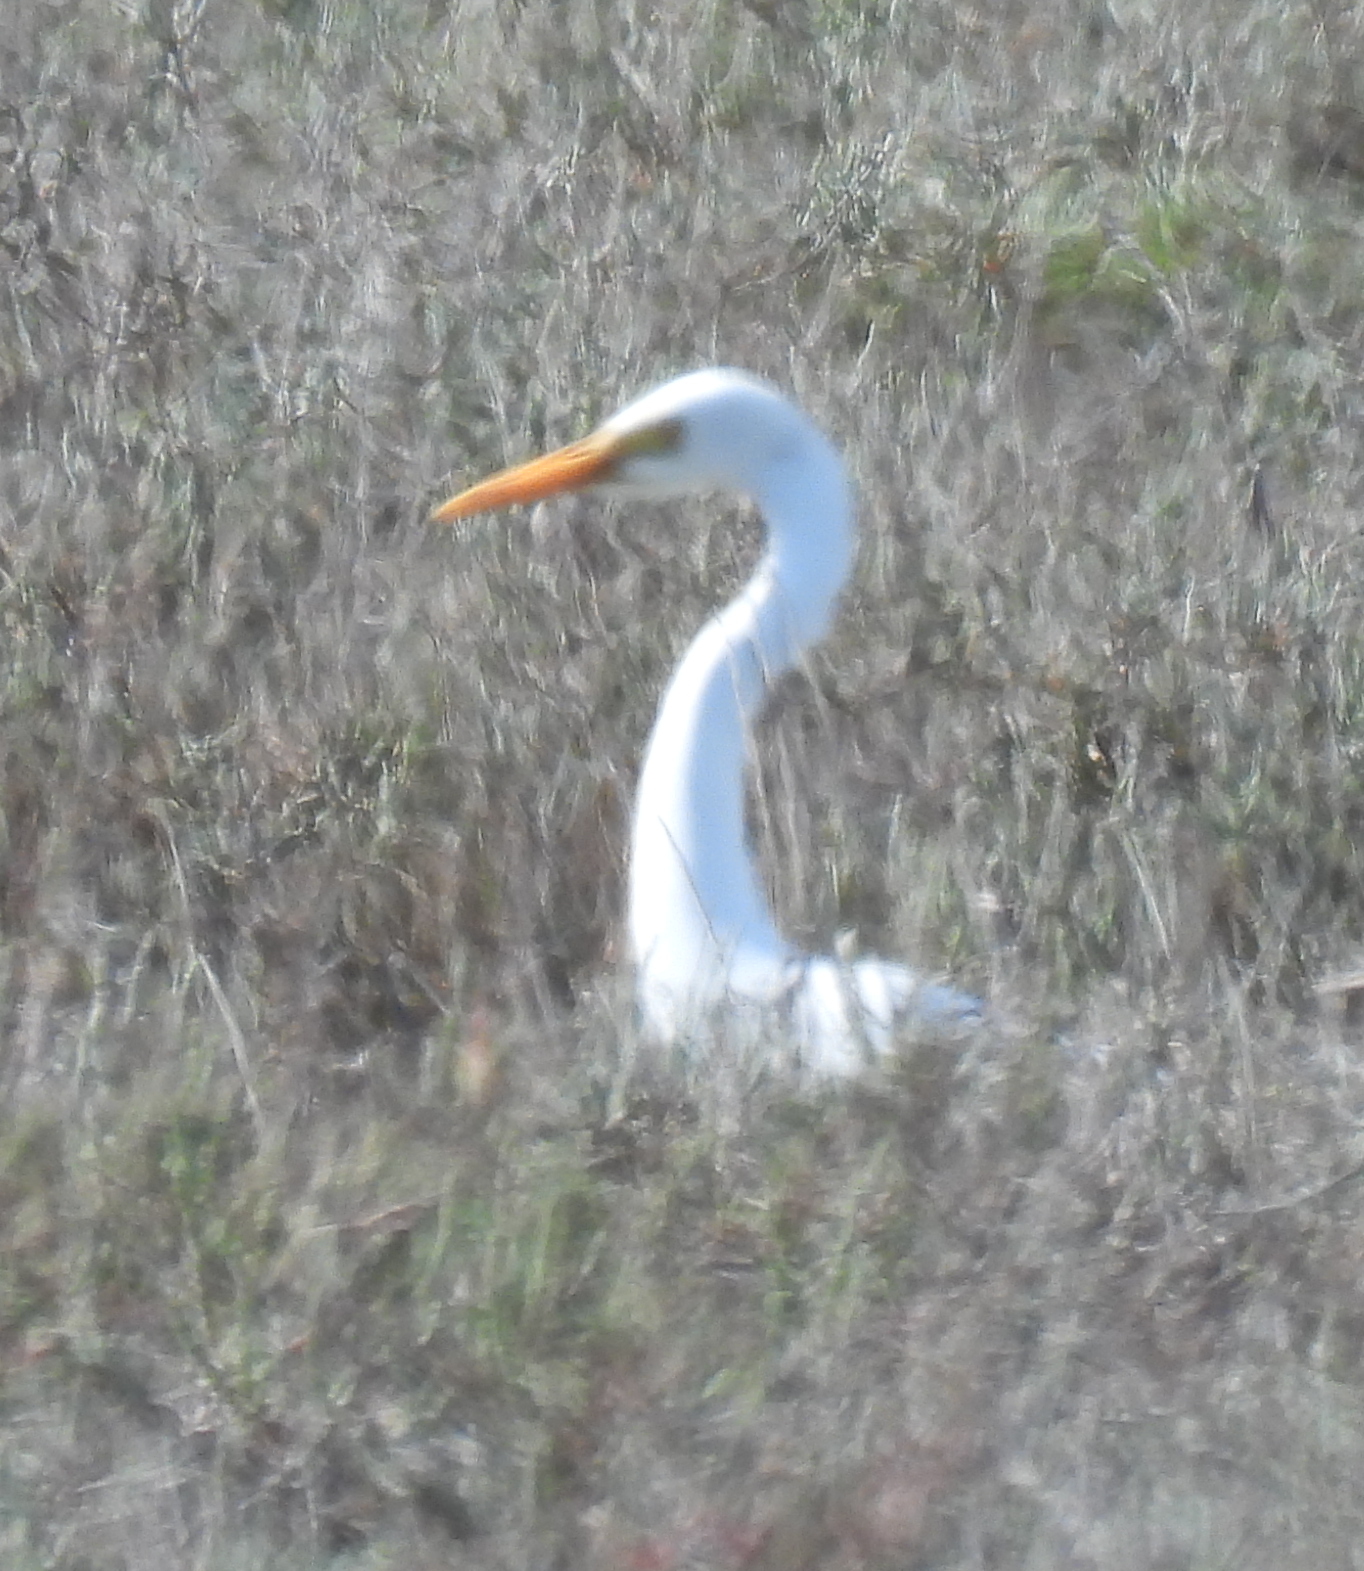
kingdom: Animalia
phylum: Chordata
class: Aves
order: Pelecaniformes
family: Ardeidae
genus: Egretta
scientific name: Egretta intermedia
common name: Intermediate egret
